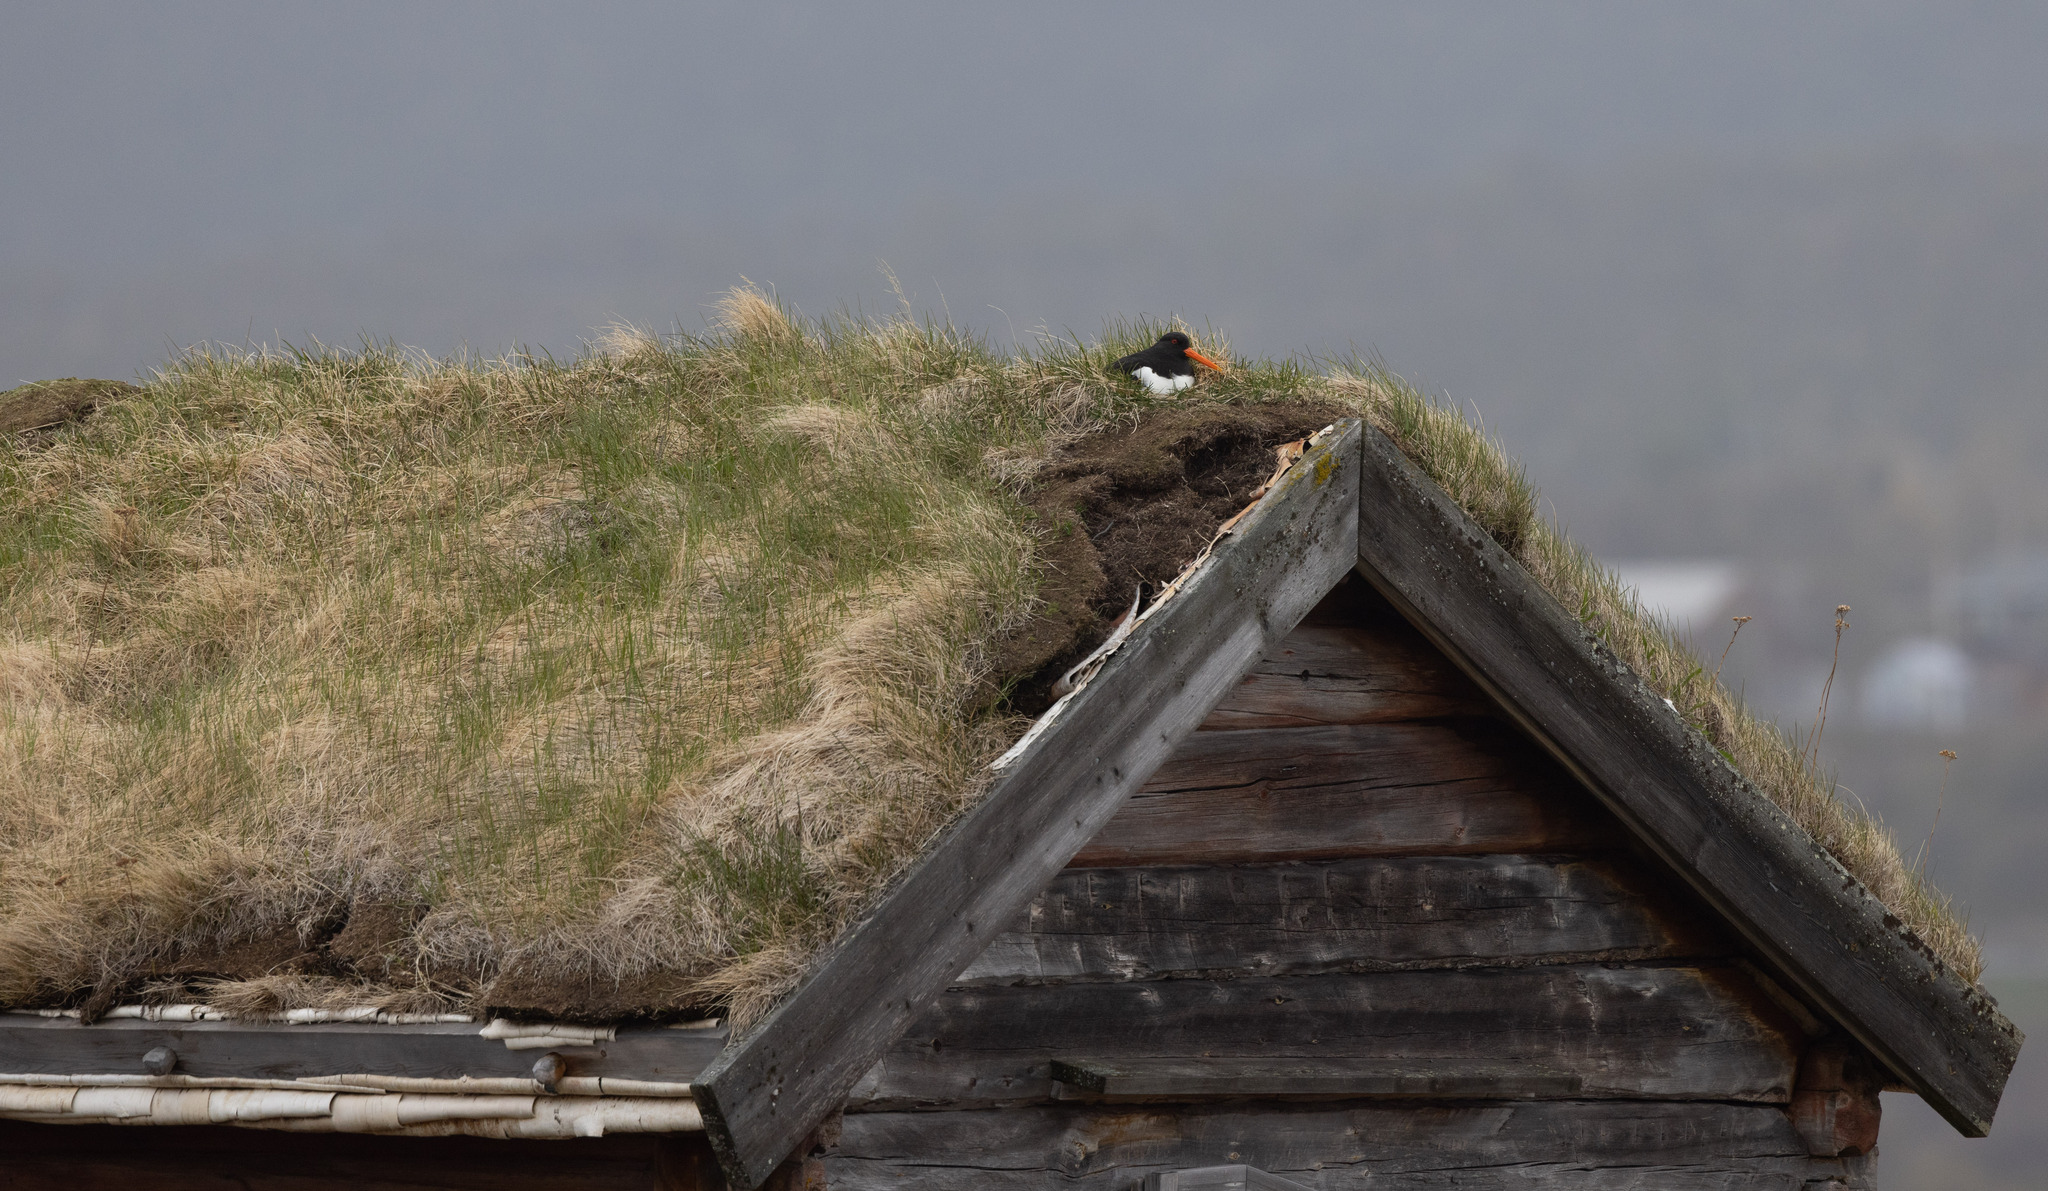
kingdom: Animalia
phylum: Chordata
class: Aves
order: Charadriiformes
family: Haematopodidae
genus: Haematopus
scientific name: Haematopus ostralegus
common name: Eurasian oystercatcher
